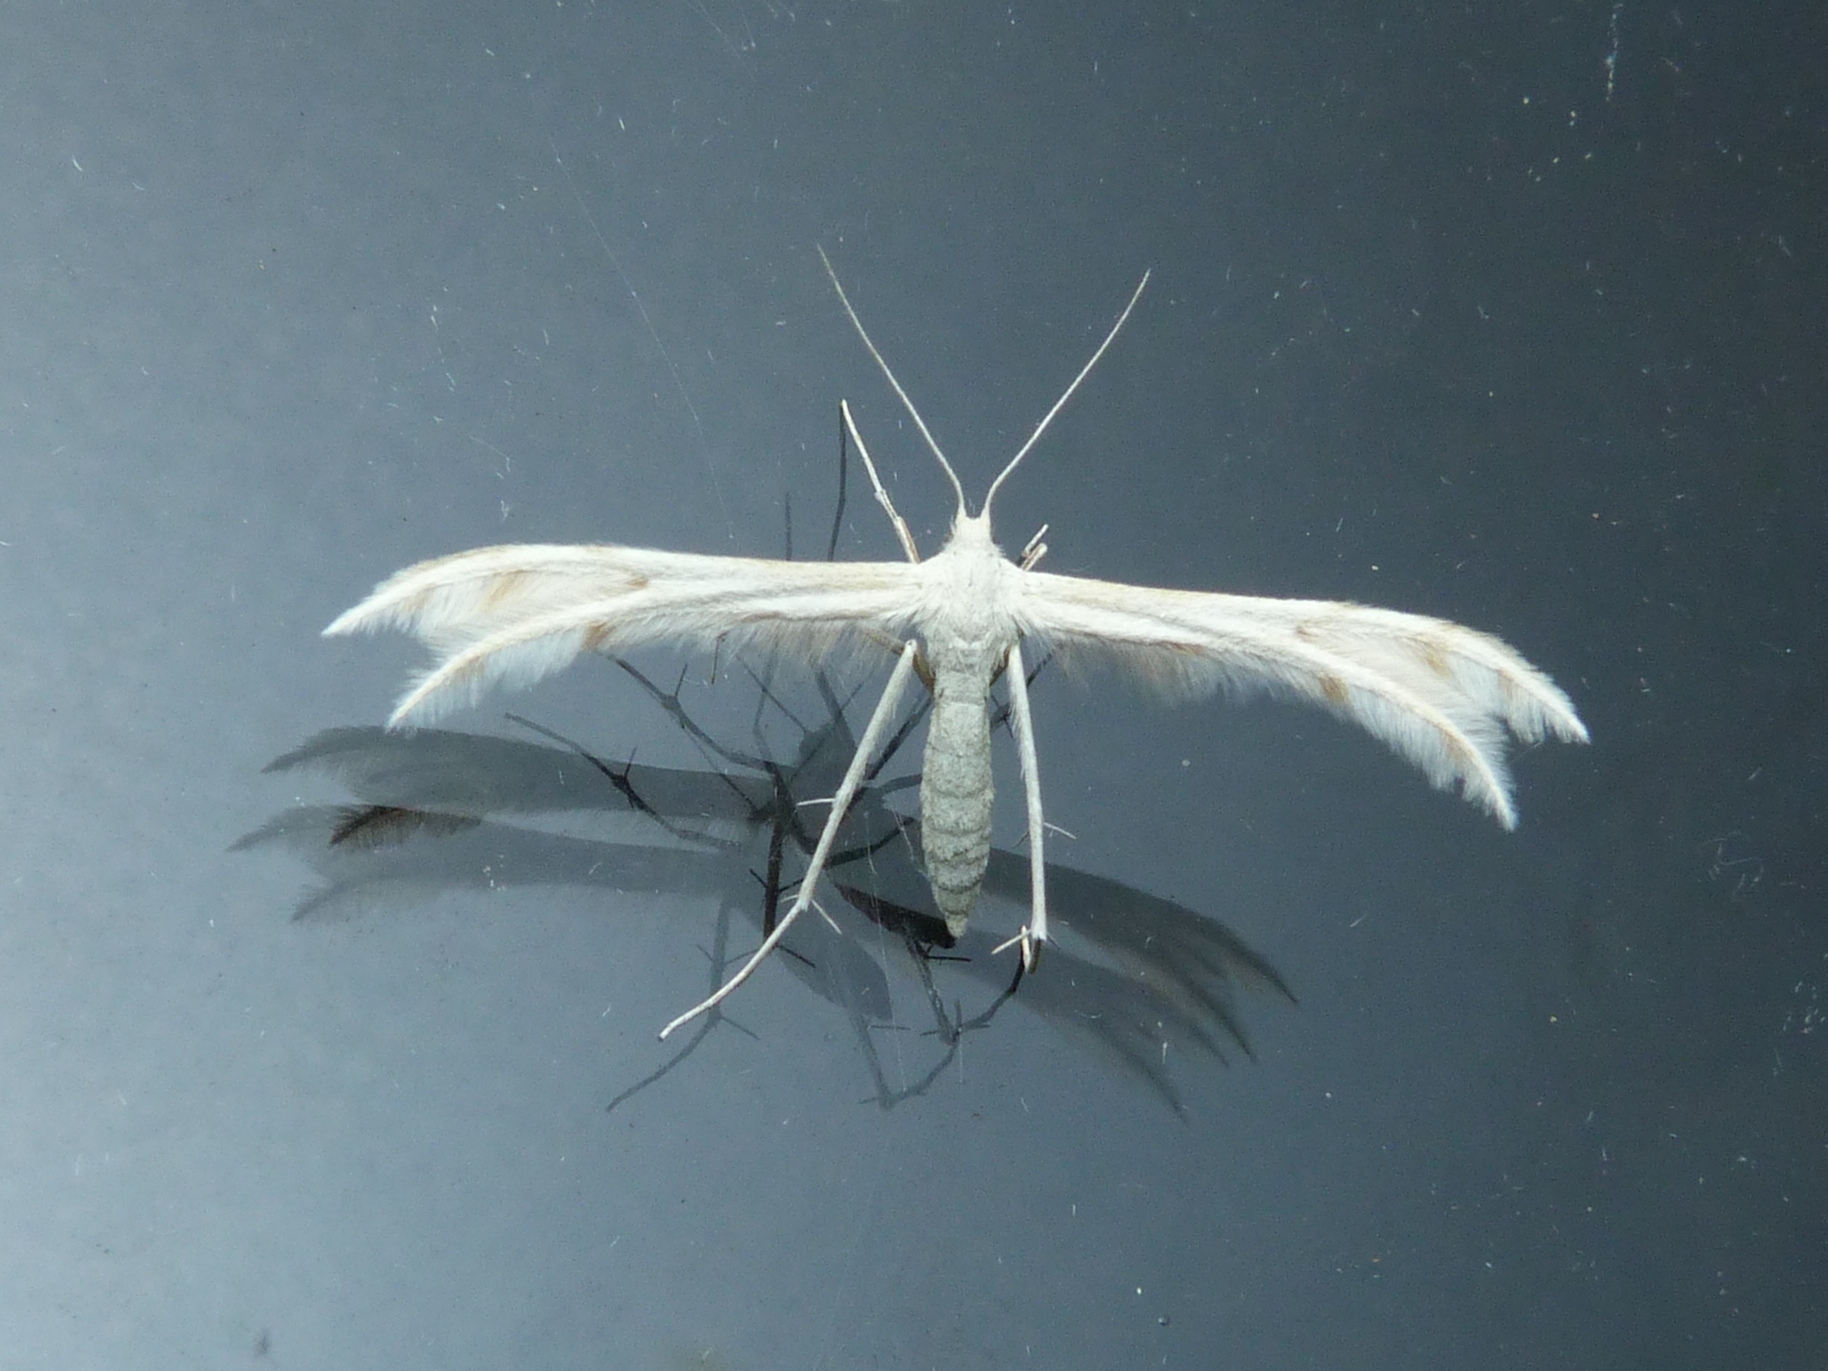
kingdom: Animalia
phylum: Arthropoda
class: Insecta
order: Lepidoptera
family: Pterophoridae
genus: Wheeleria
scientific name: Wheeleria spilodactylus
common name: Horehound plume
